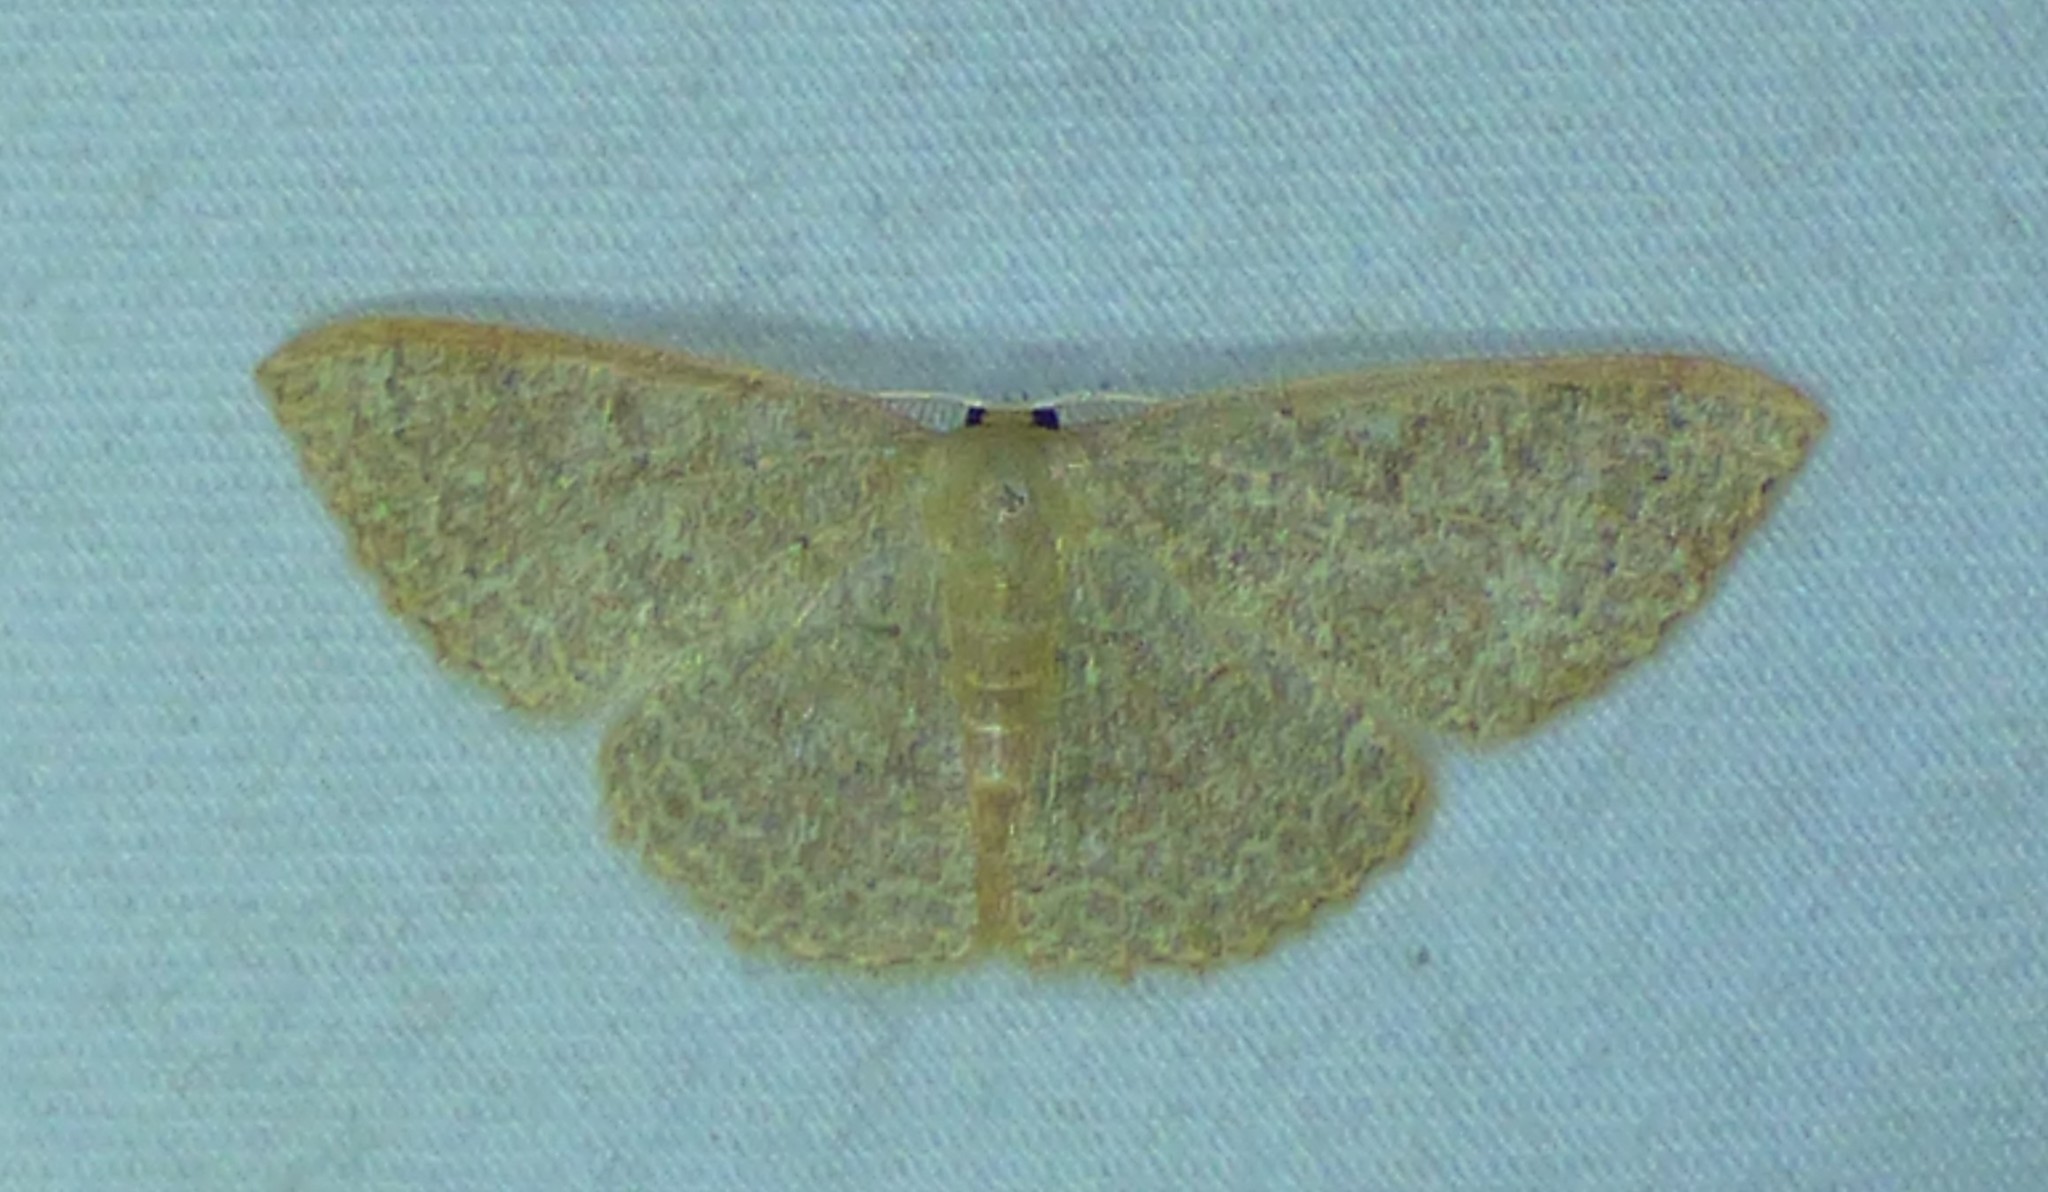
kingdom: Animalia
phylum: Arthropoda
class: Insecta
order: Lepidoptera
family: Geometridae
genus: Pleuroprucha
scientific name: Pleuroprucha insulsaria
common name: Common tan wave
